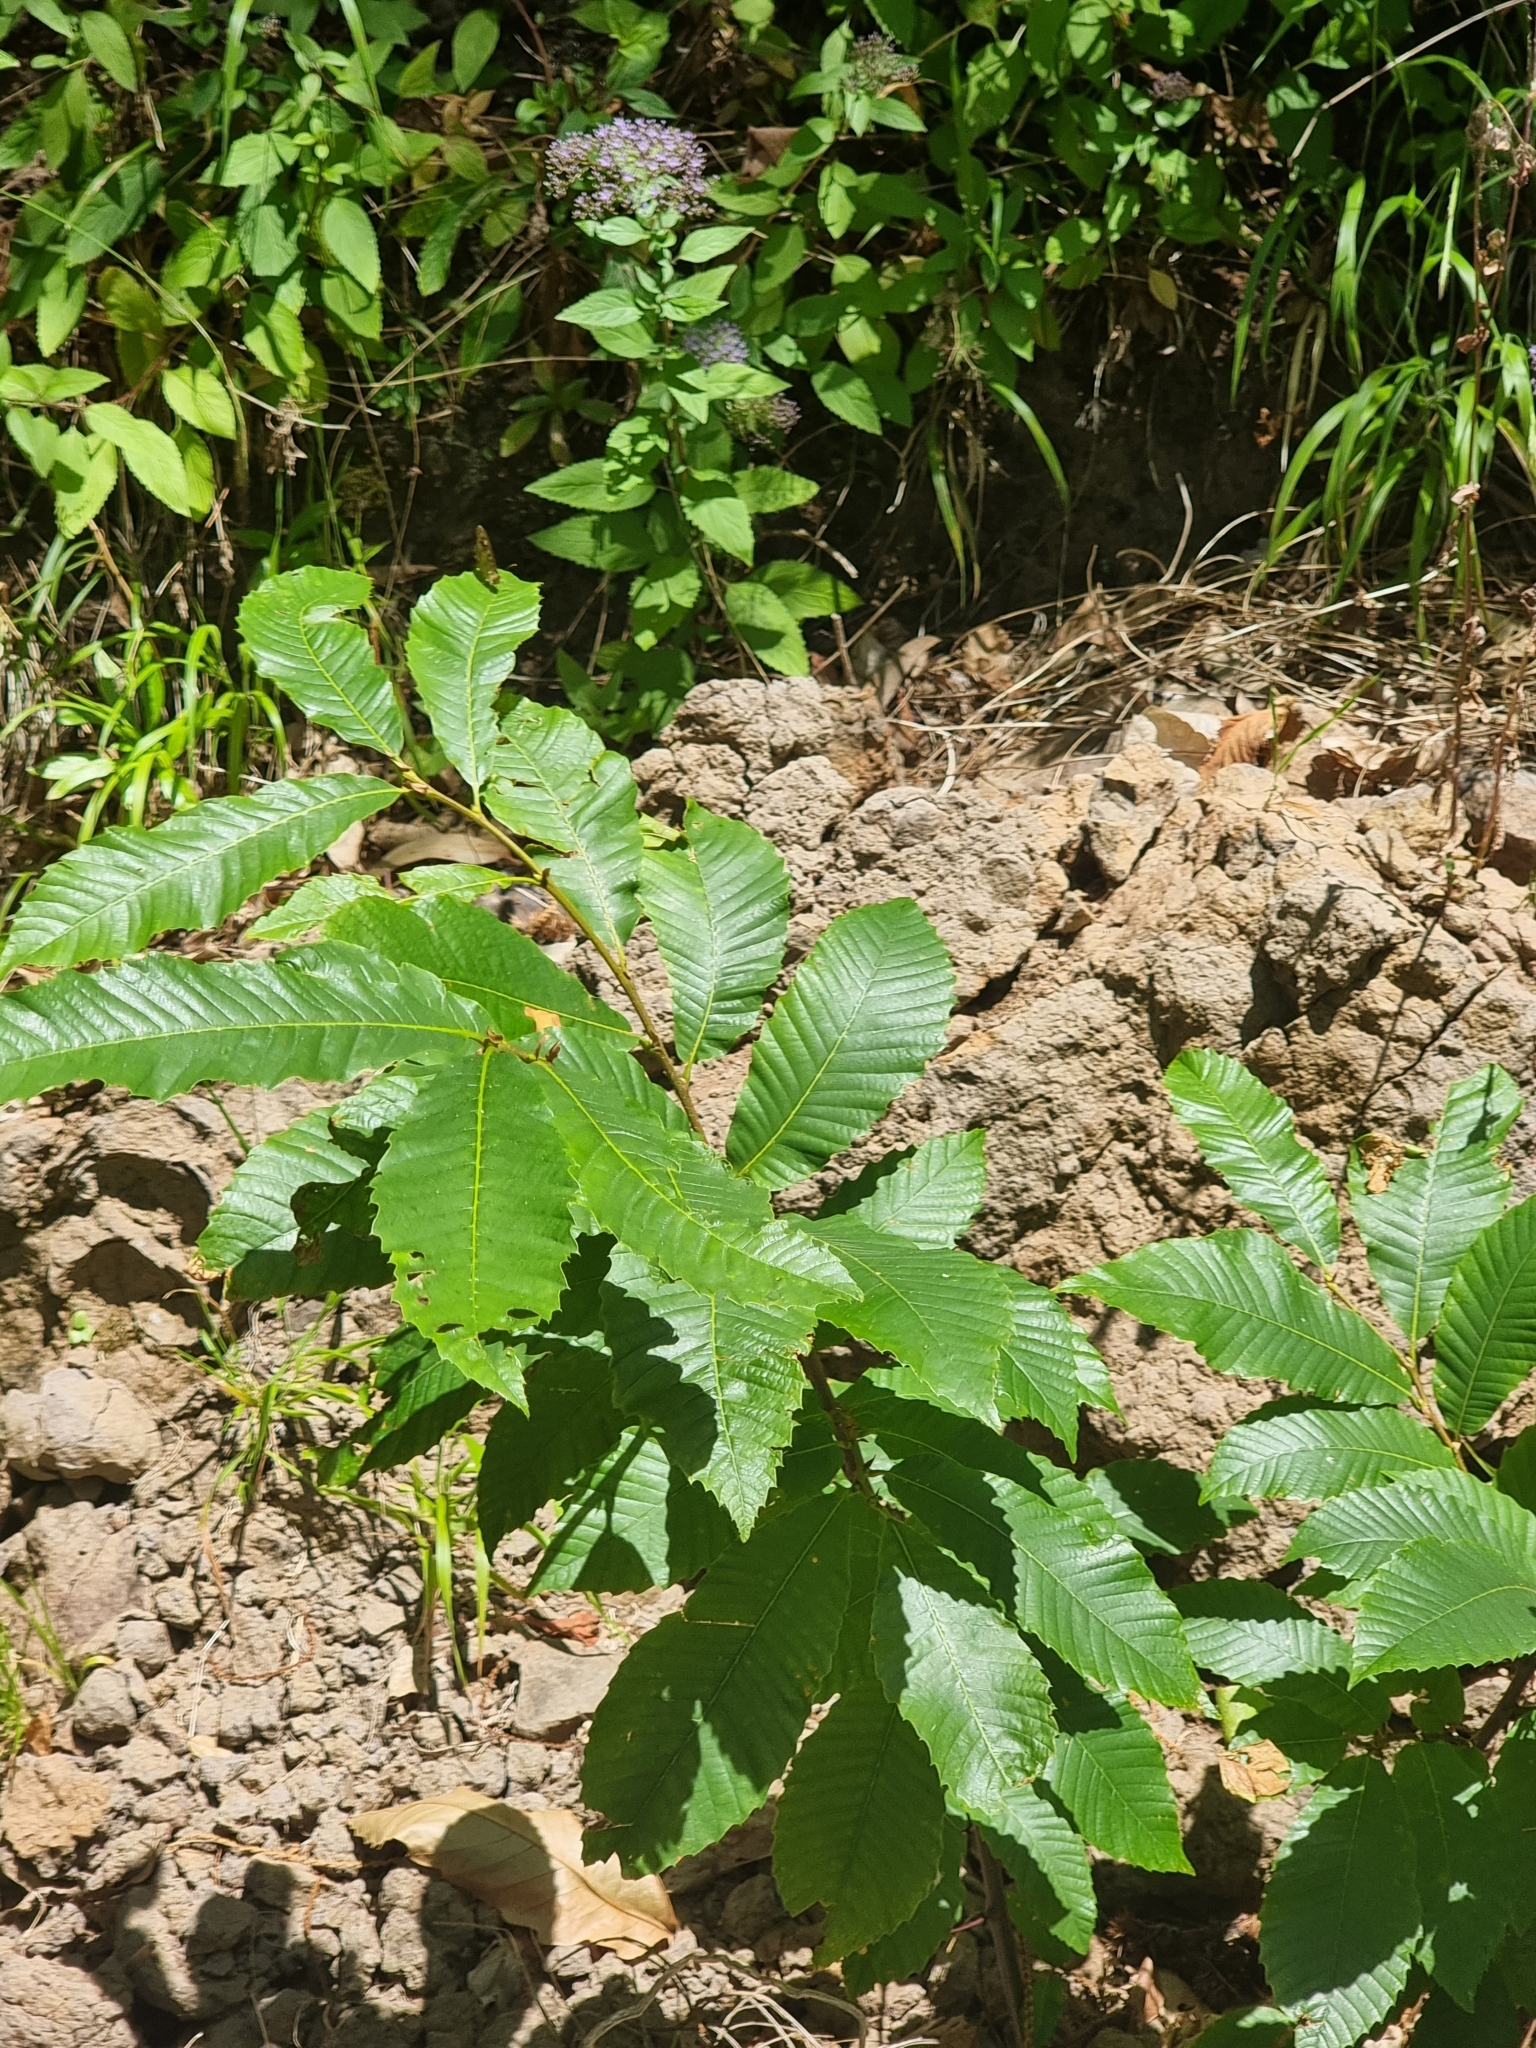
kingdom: Plantae
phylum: Tracheophyta
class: Magnoliopsida
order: Fagales
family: Fagaceae
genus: Castanea
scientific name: Castanea sativa
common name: Sweet chestnut
